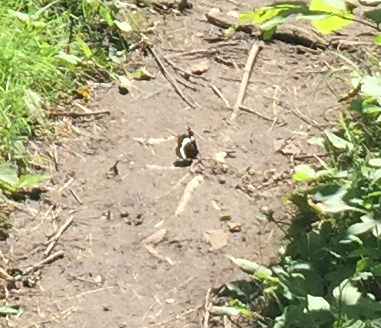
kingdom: Animalia
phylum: Arthropoda
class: Insecta
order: Lepidoptera
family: Nymphalidae
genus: Limenitis
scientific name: Limenitis arthemis
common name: Red-spotted admiral
